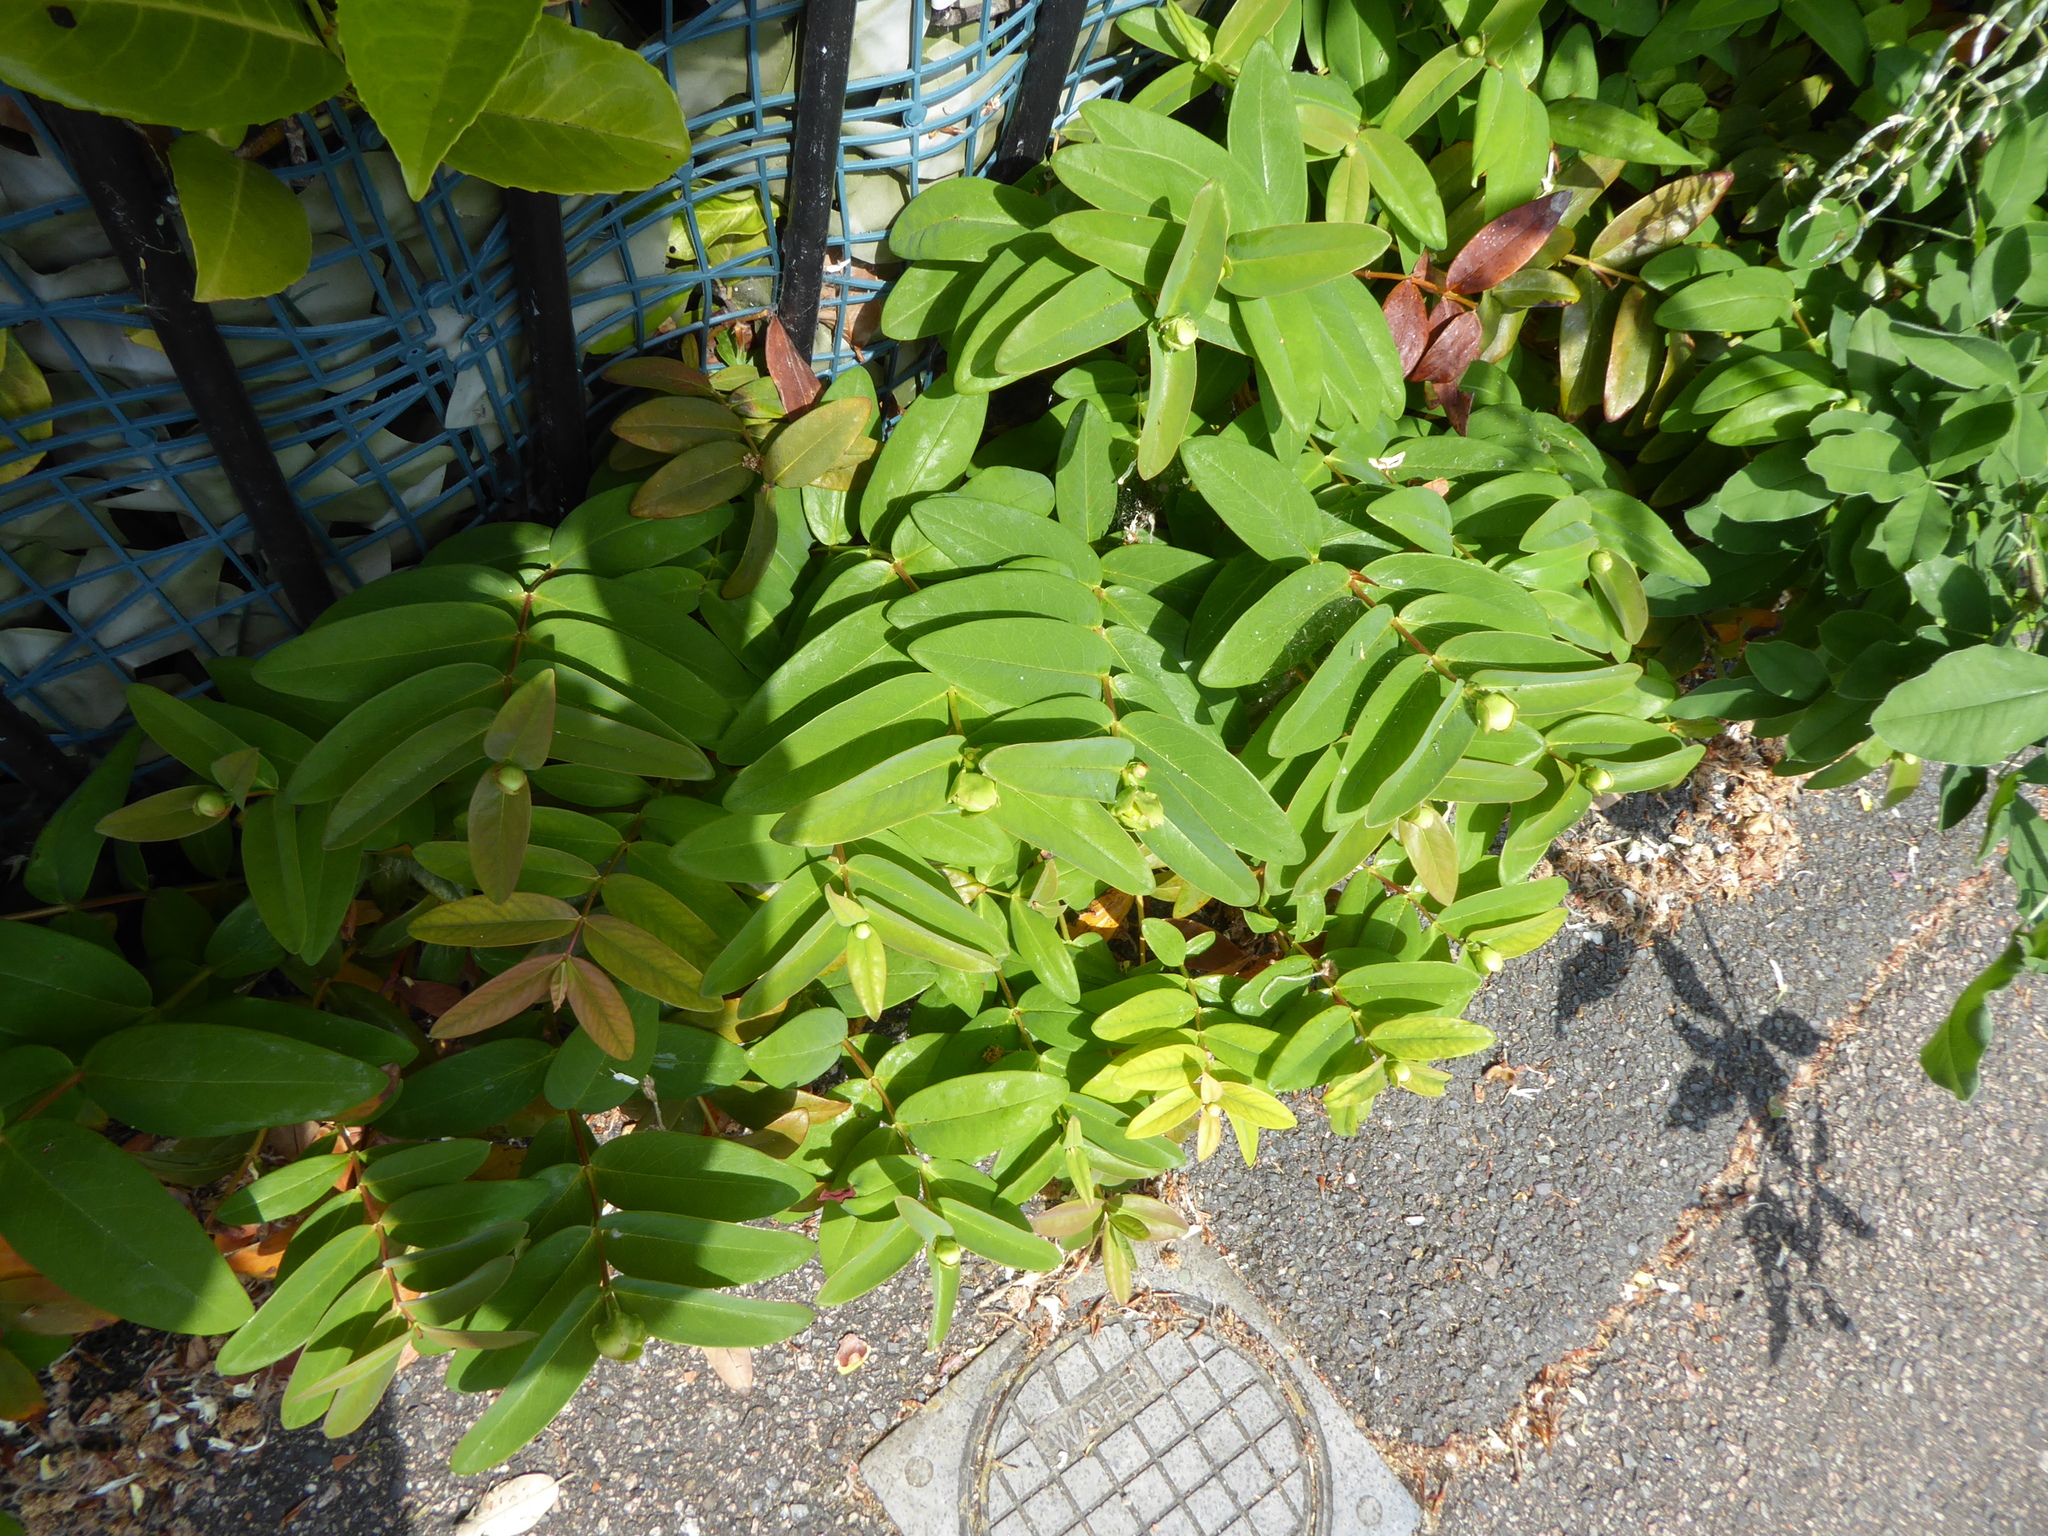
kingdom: Plantae
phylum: Tracheophyta
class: Magnoliopsida
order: Malpighiales
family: Hypericaceae
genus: Hypericum
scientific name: Hypericum calycinum
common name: Rose-of-sharon
